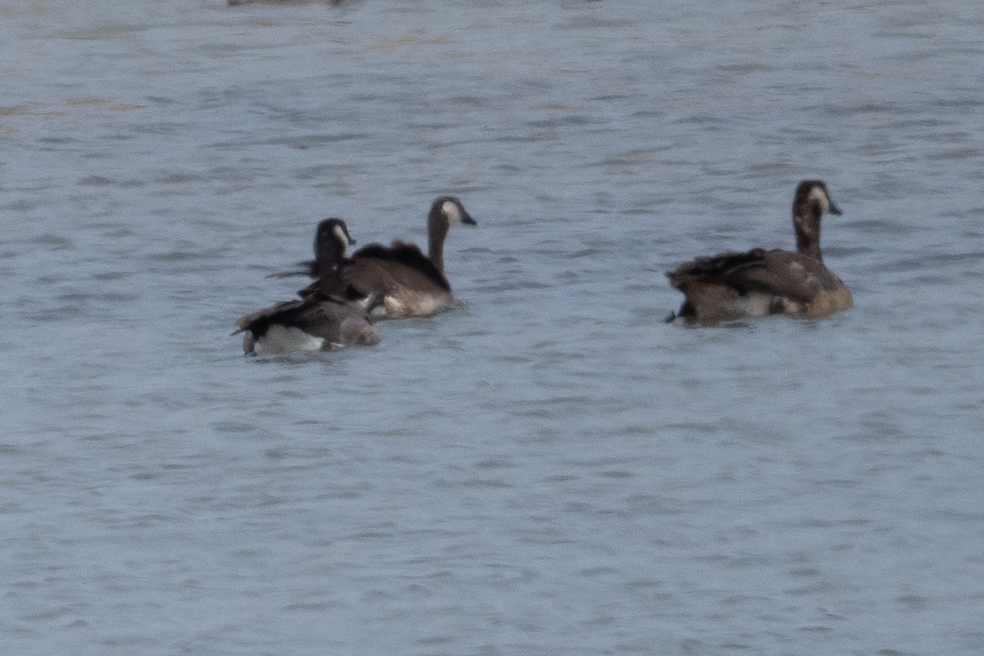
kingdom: Animalia
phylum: Chordata
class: Aves
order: Anseriformes
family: Anatidae
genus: Branta
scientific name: Branta canadensis
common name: Canada goose
